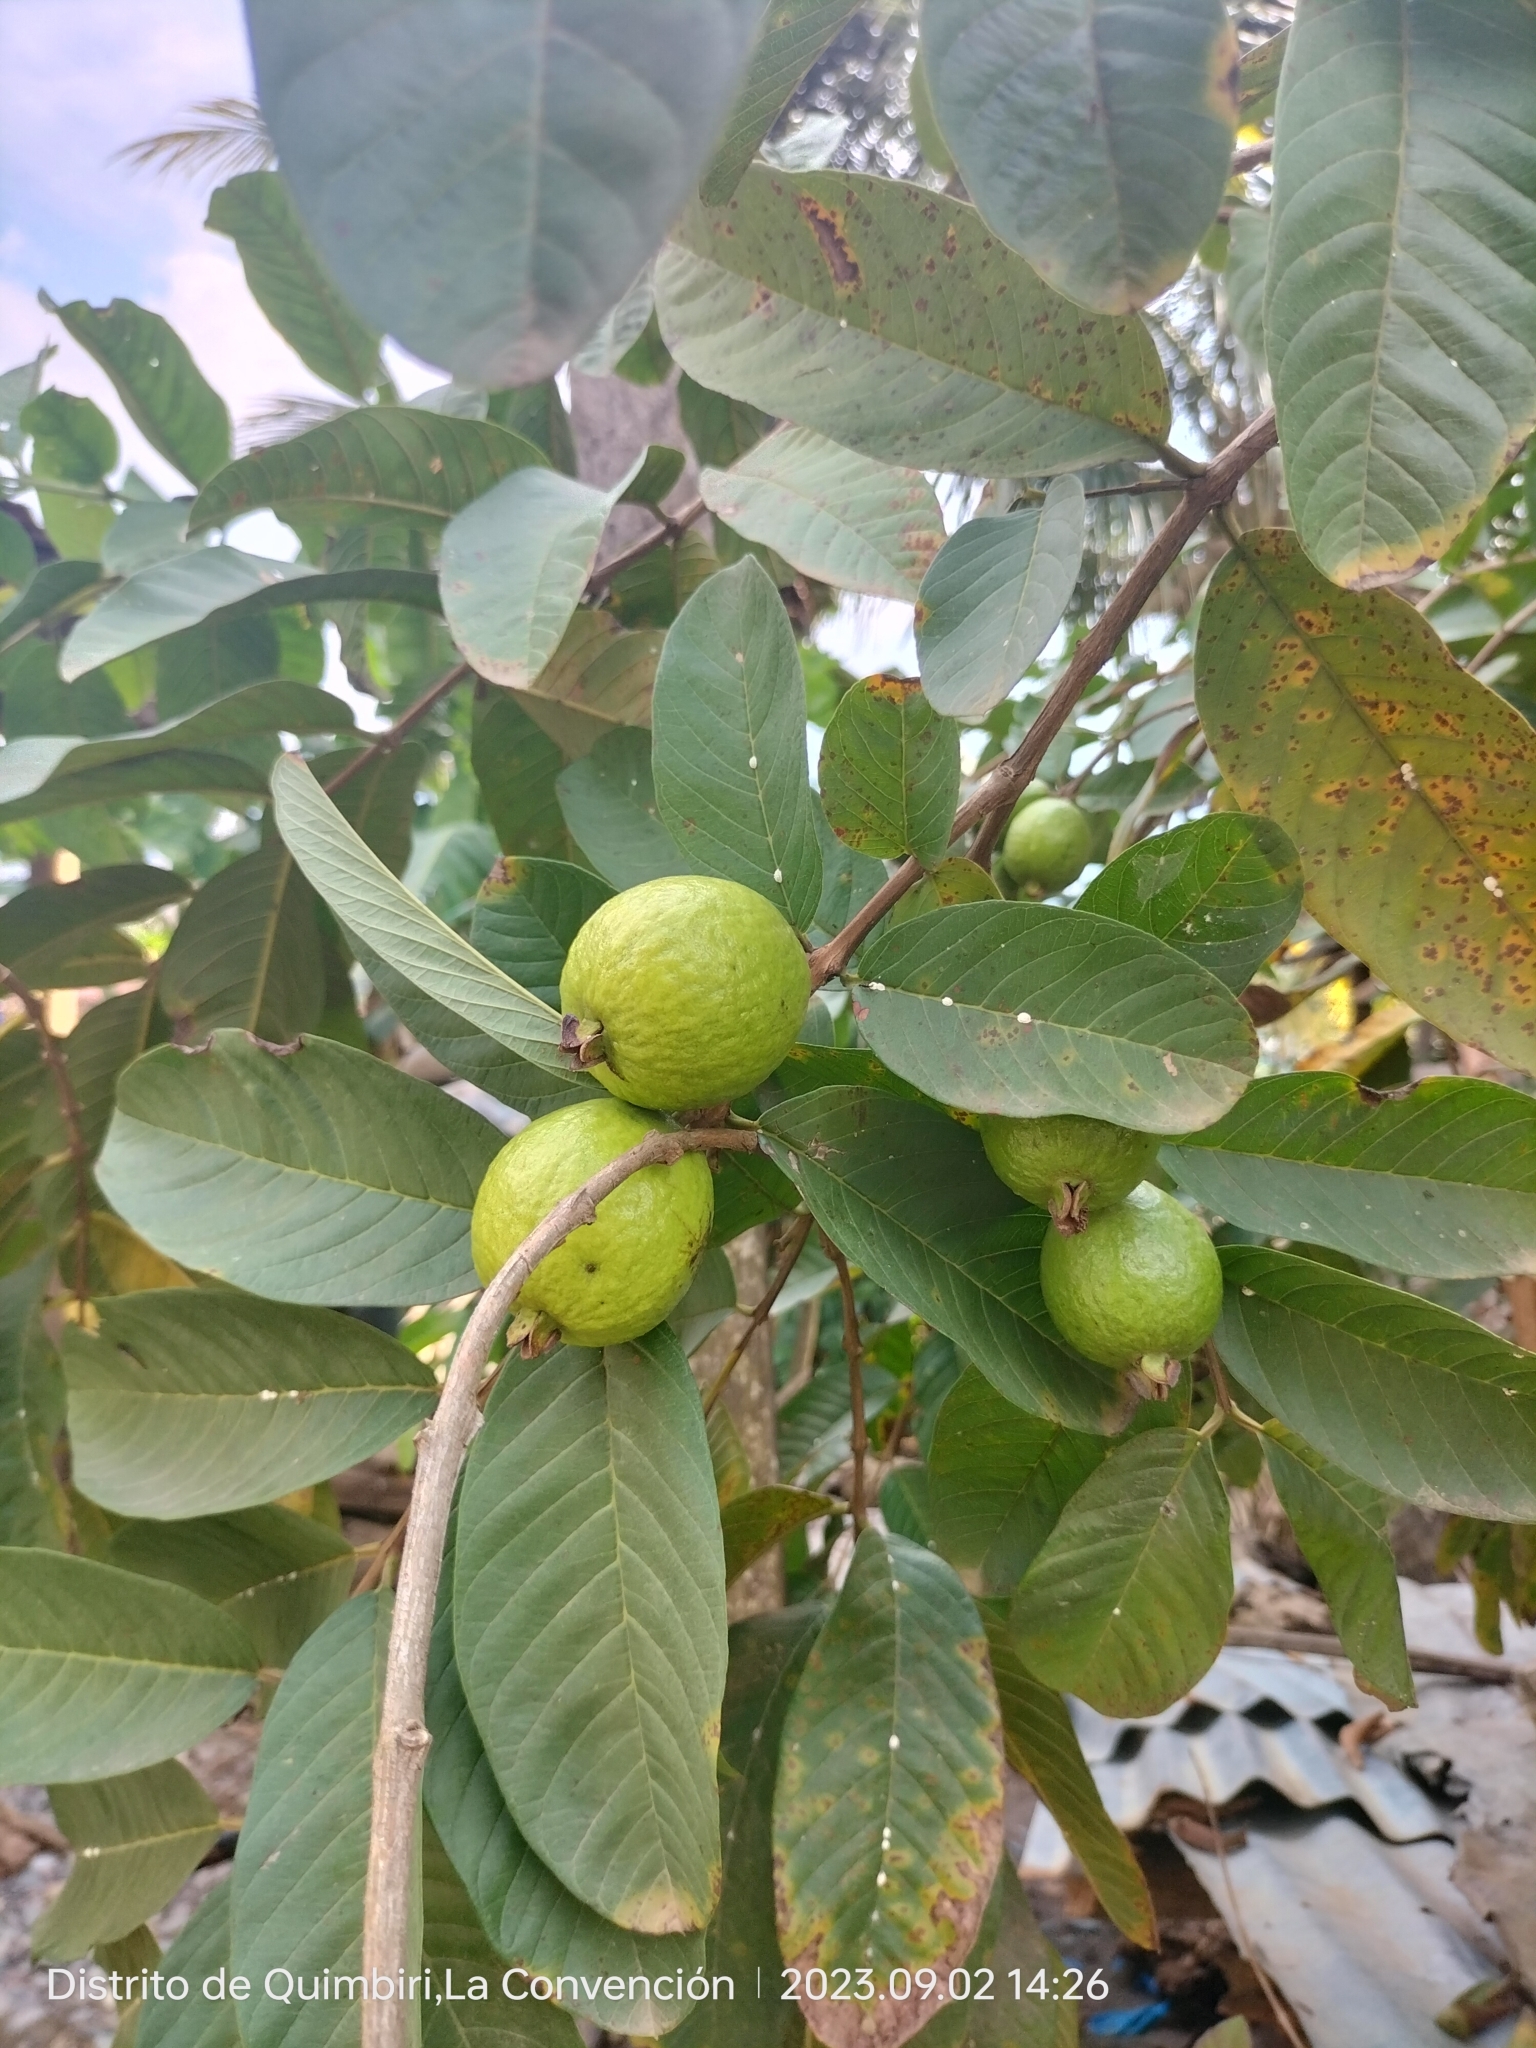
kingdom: Plantae
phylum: Tracheophyta
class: Magnoliopsida
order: Myrtales
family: Myrtaceae
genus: Psidium
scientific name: Psidium guajava
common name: Guava
